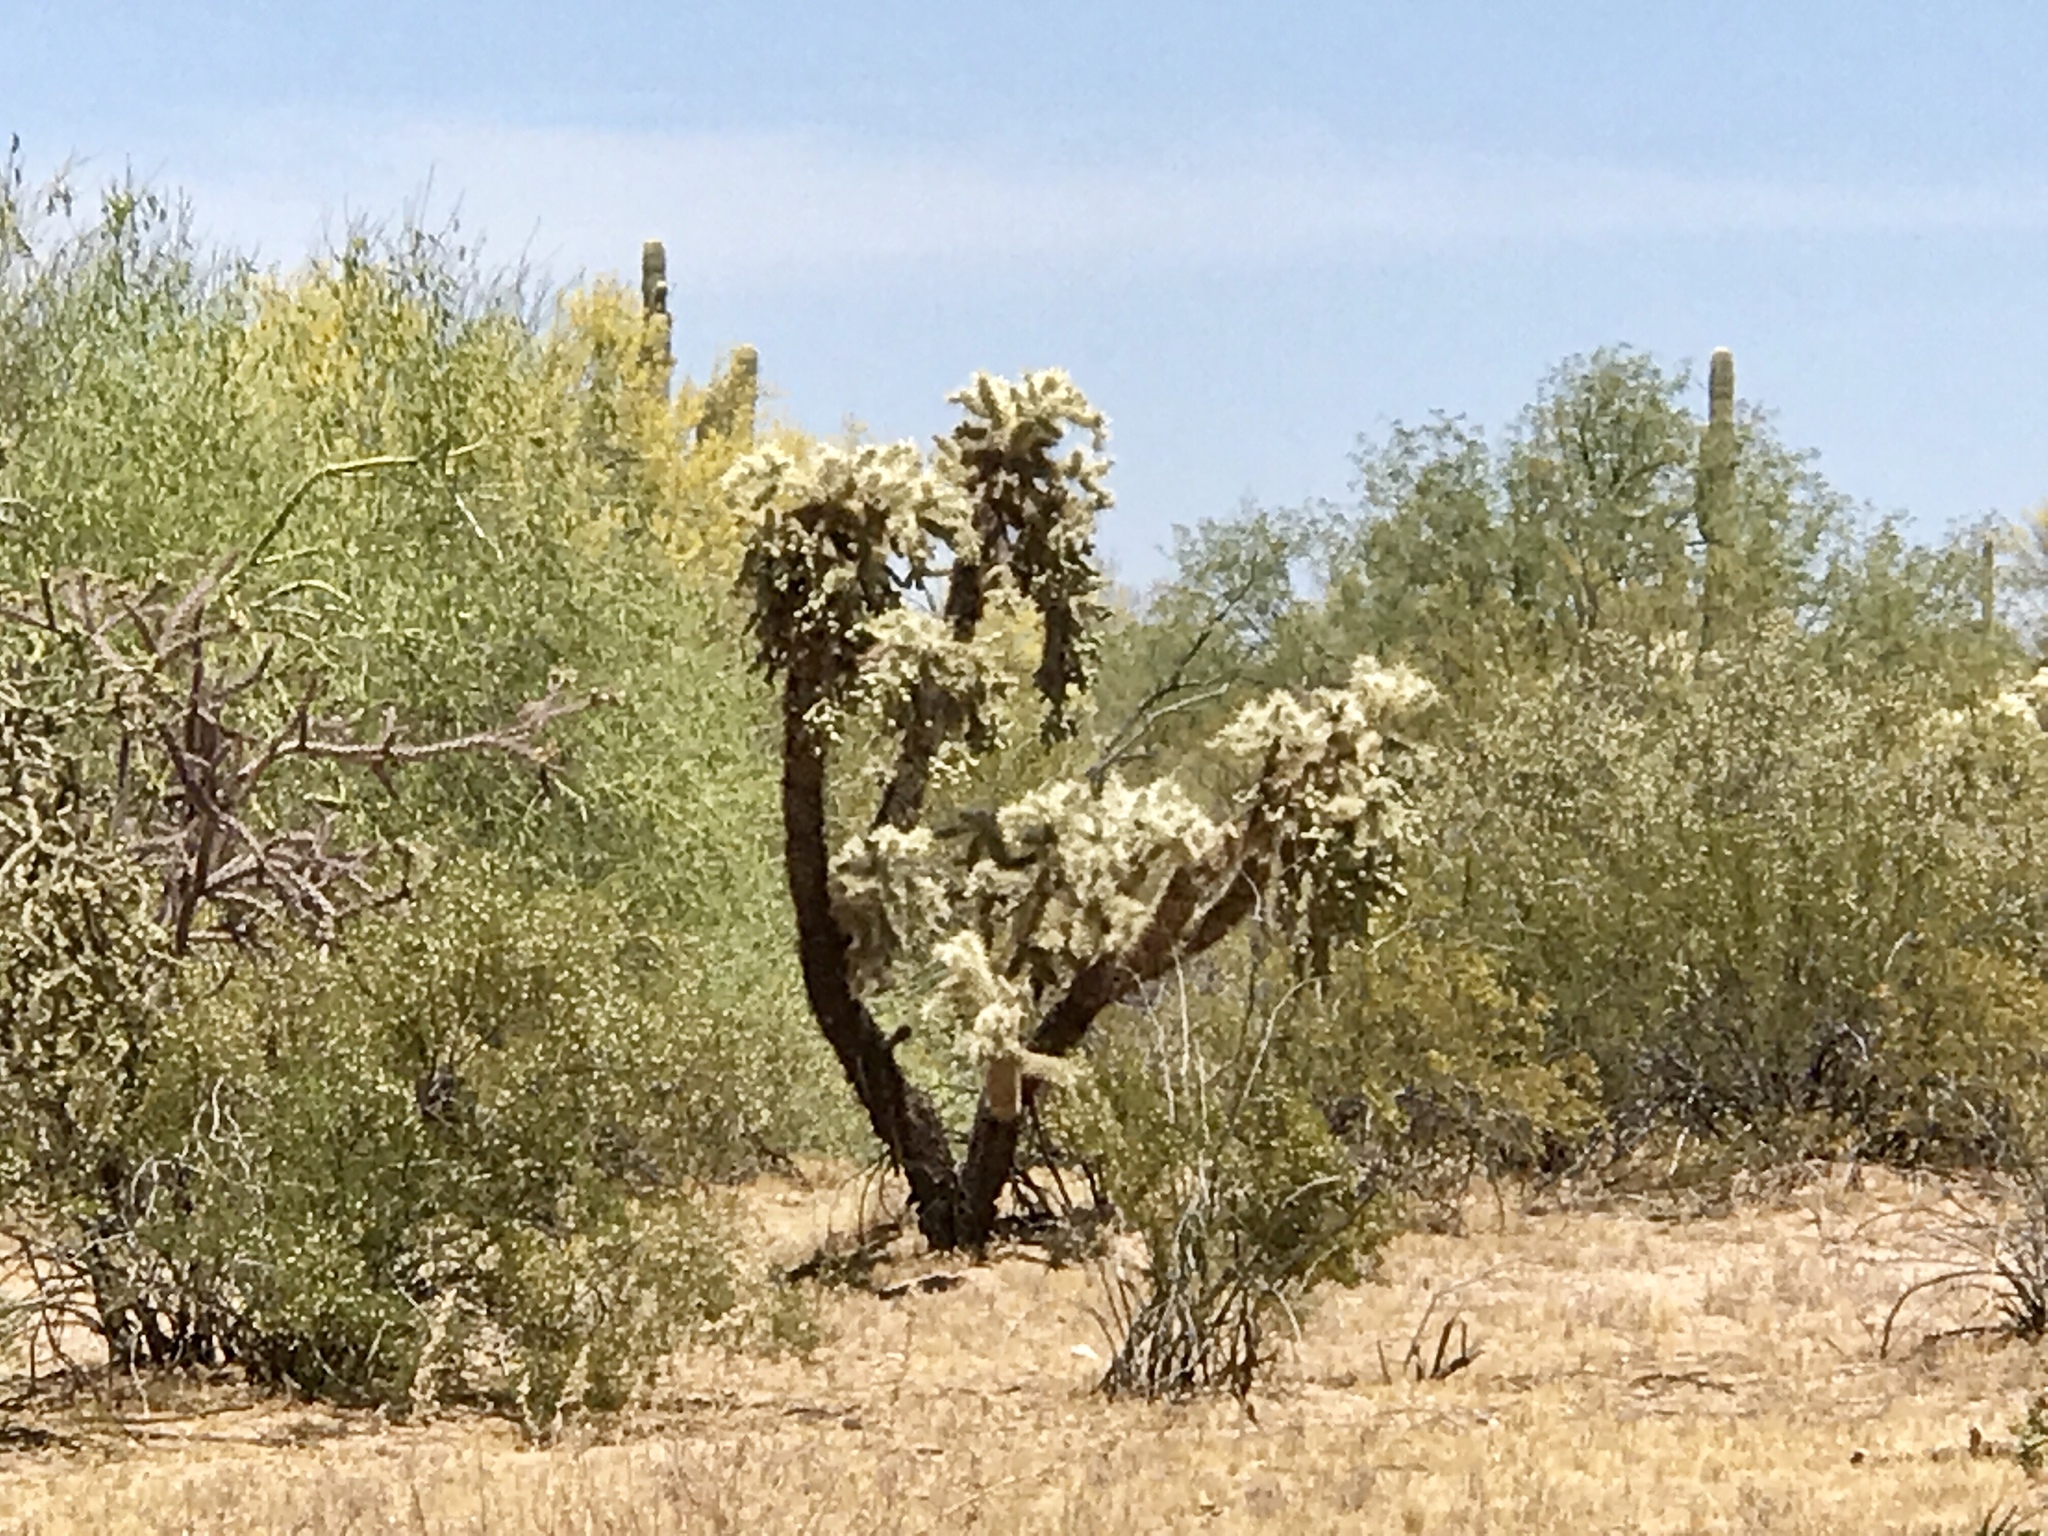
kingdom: Plantae
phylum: Tracheophyta
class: Magnoliopsida
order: Caryophyllales
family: Cactaceae
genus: Cylindropuntia
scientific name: Cylindropuntia fulgida
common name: Jumping cholla
